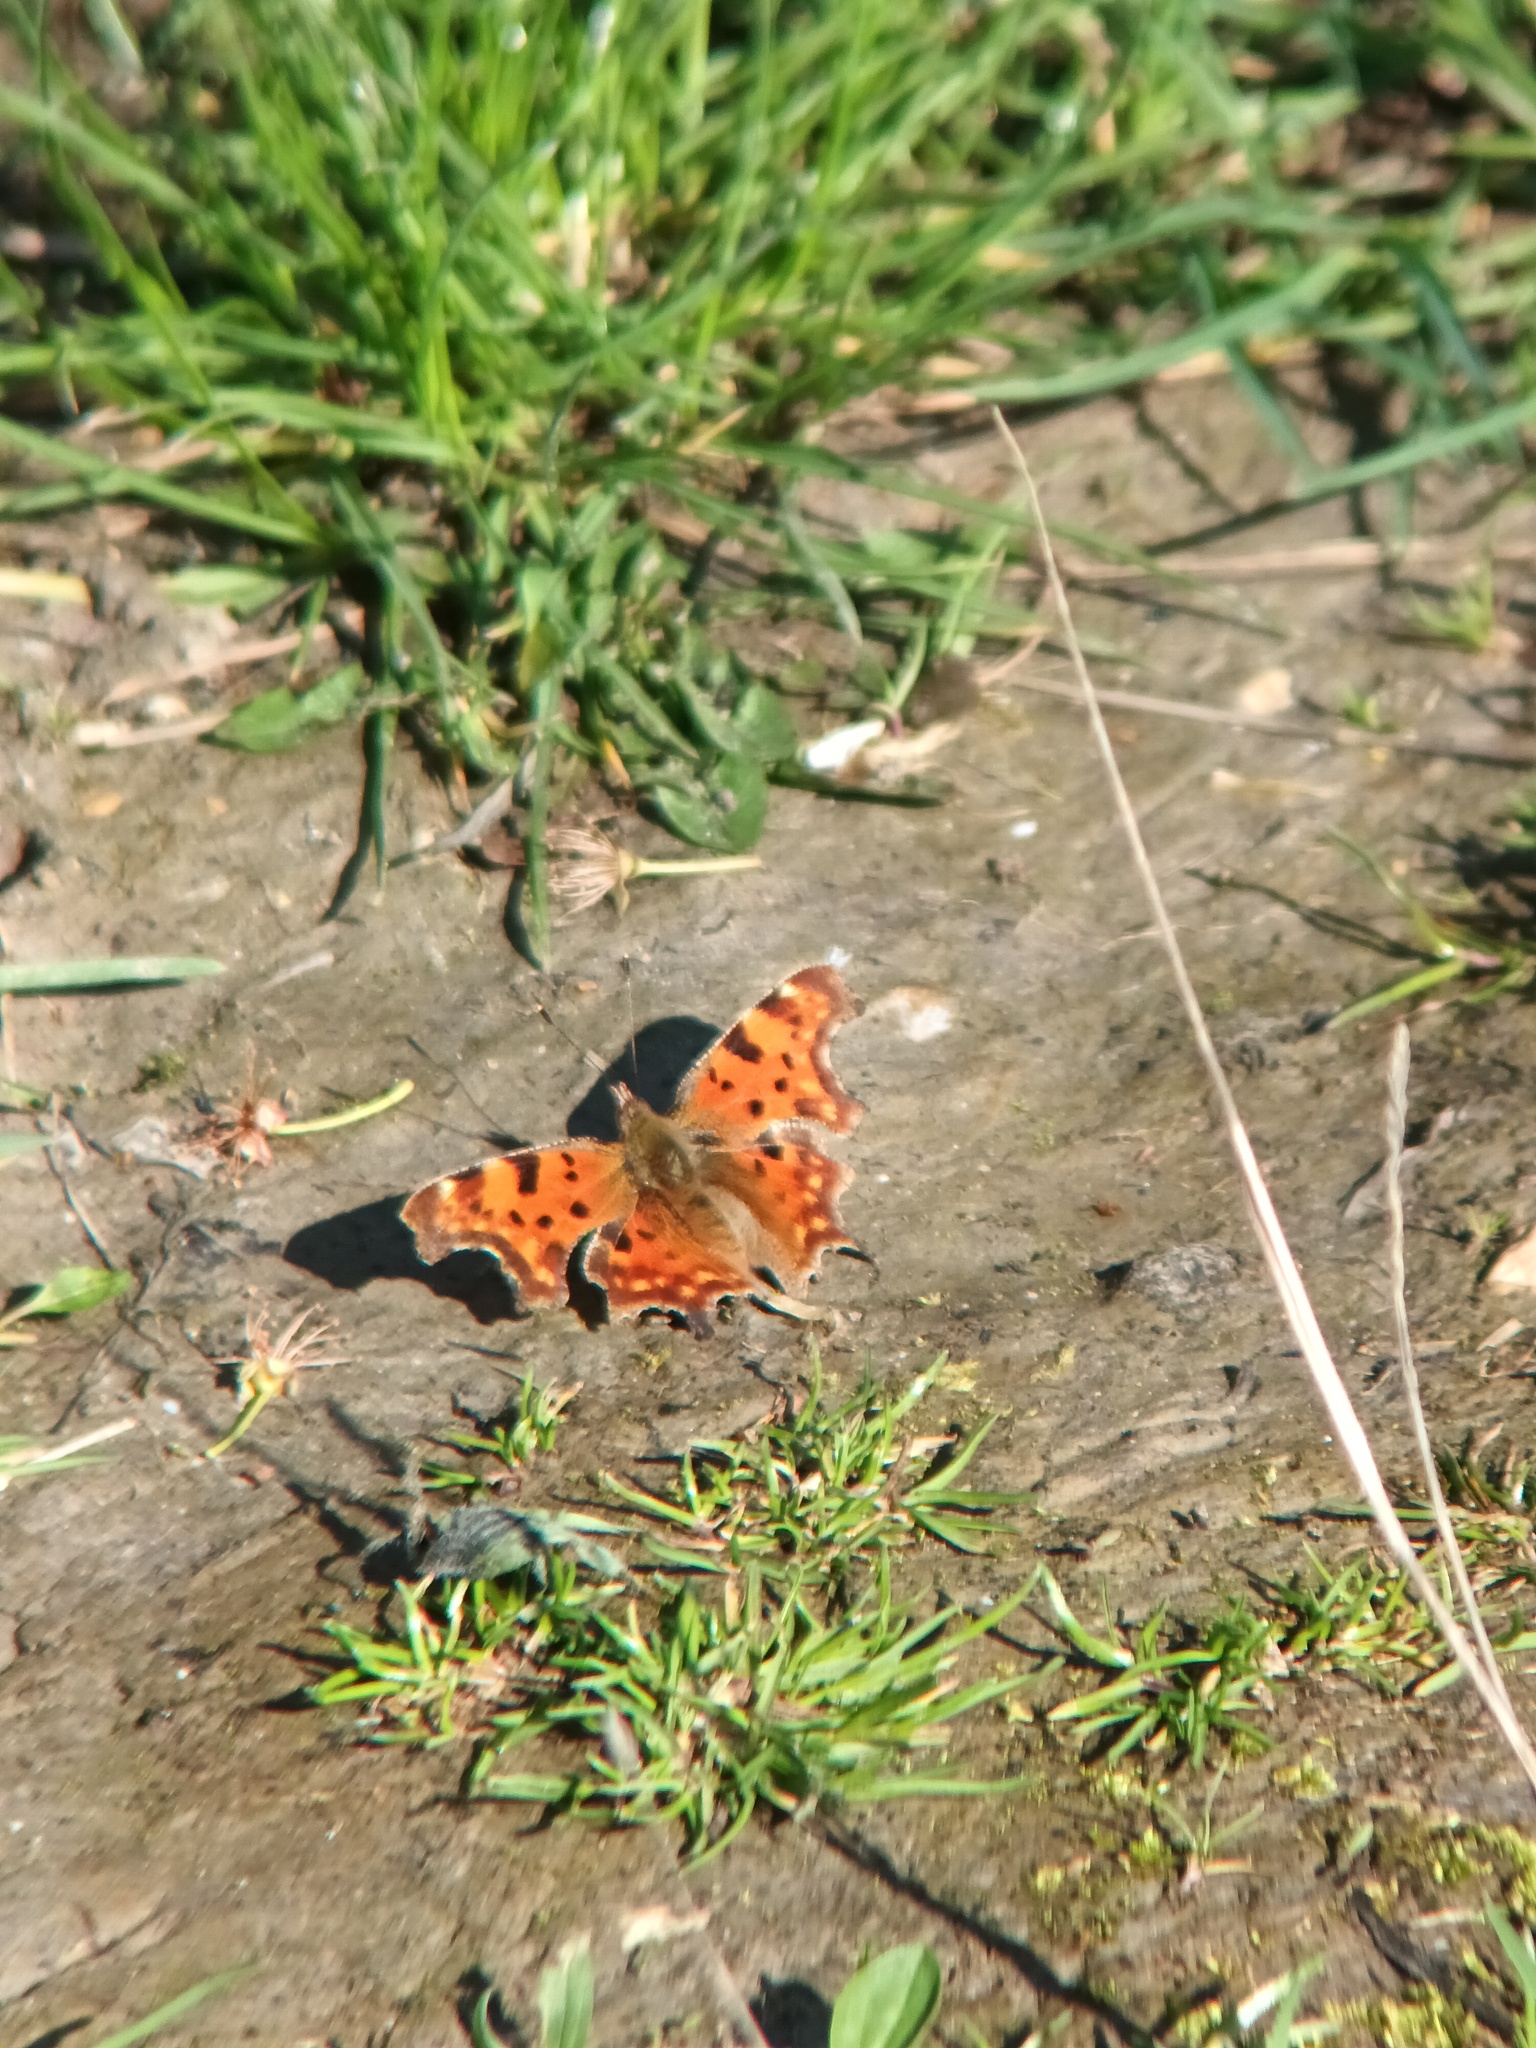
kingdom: Animalia
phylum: Arthropoda
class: Insecta
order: Lepidoptera
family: Nymphalidae
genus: Polygonia
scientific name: Polygonia c-album
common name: Comma
